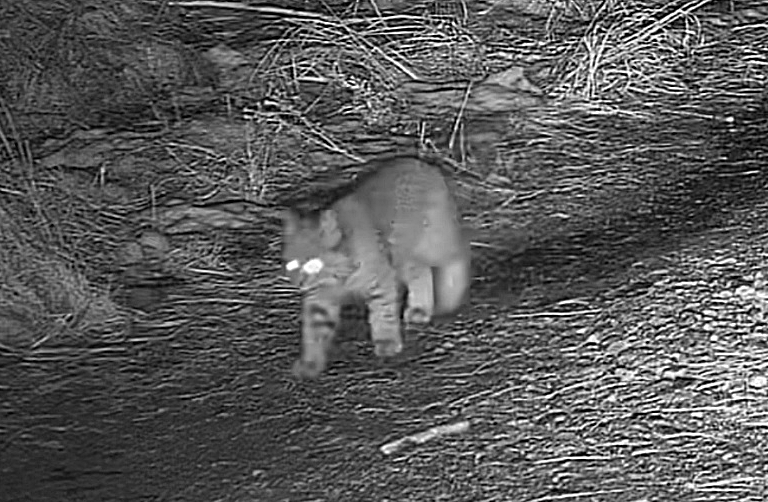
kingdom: Animalia
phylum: Chordata
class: Mammalia
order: Carnivora
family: Felidae
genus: Lynx
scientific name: Lynx rufus
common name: Bobcat
